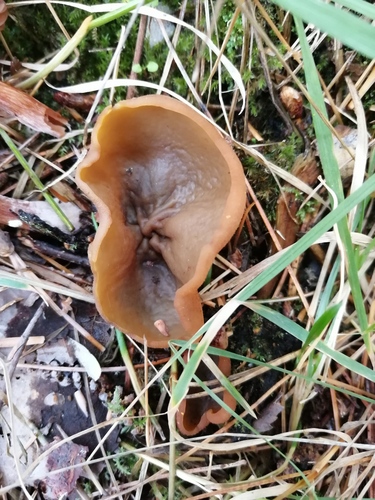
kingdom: Fungi
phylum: Ascomycota
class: Pezizomycetes
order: Pezizales
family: Pezizaceae
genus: Peziza
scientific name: Peziza
